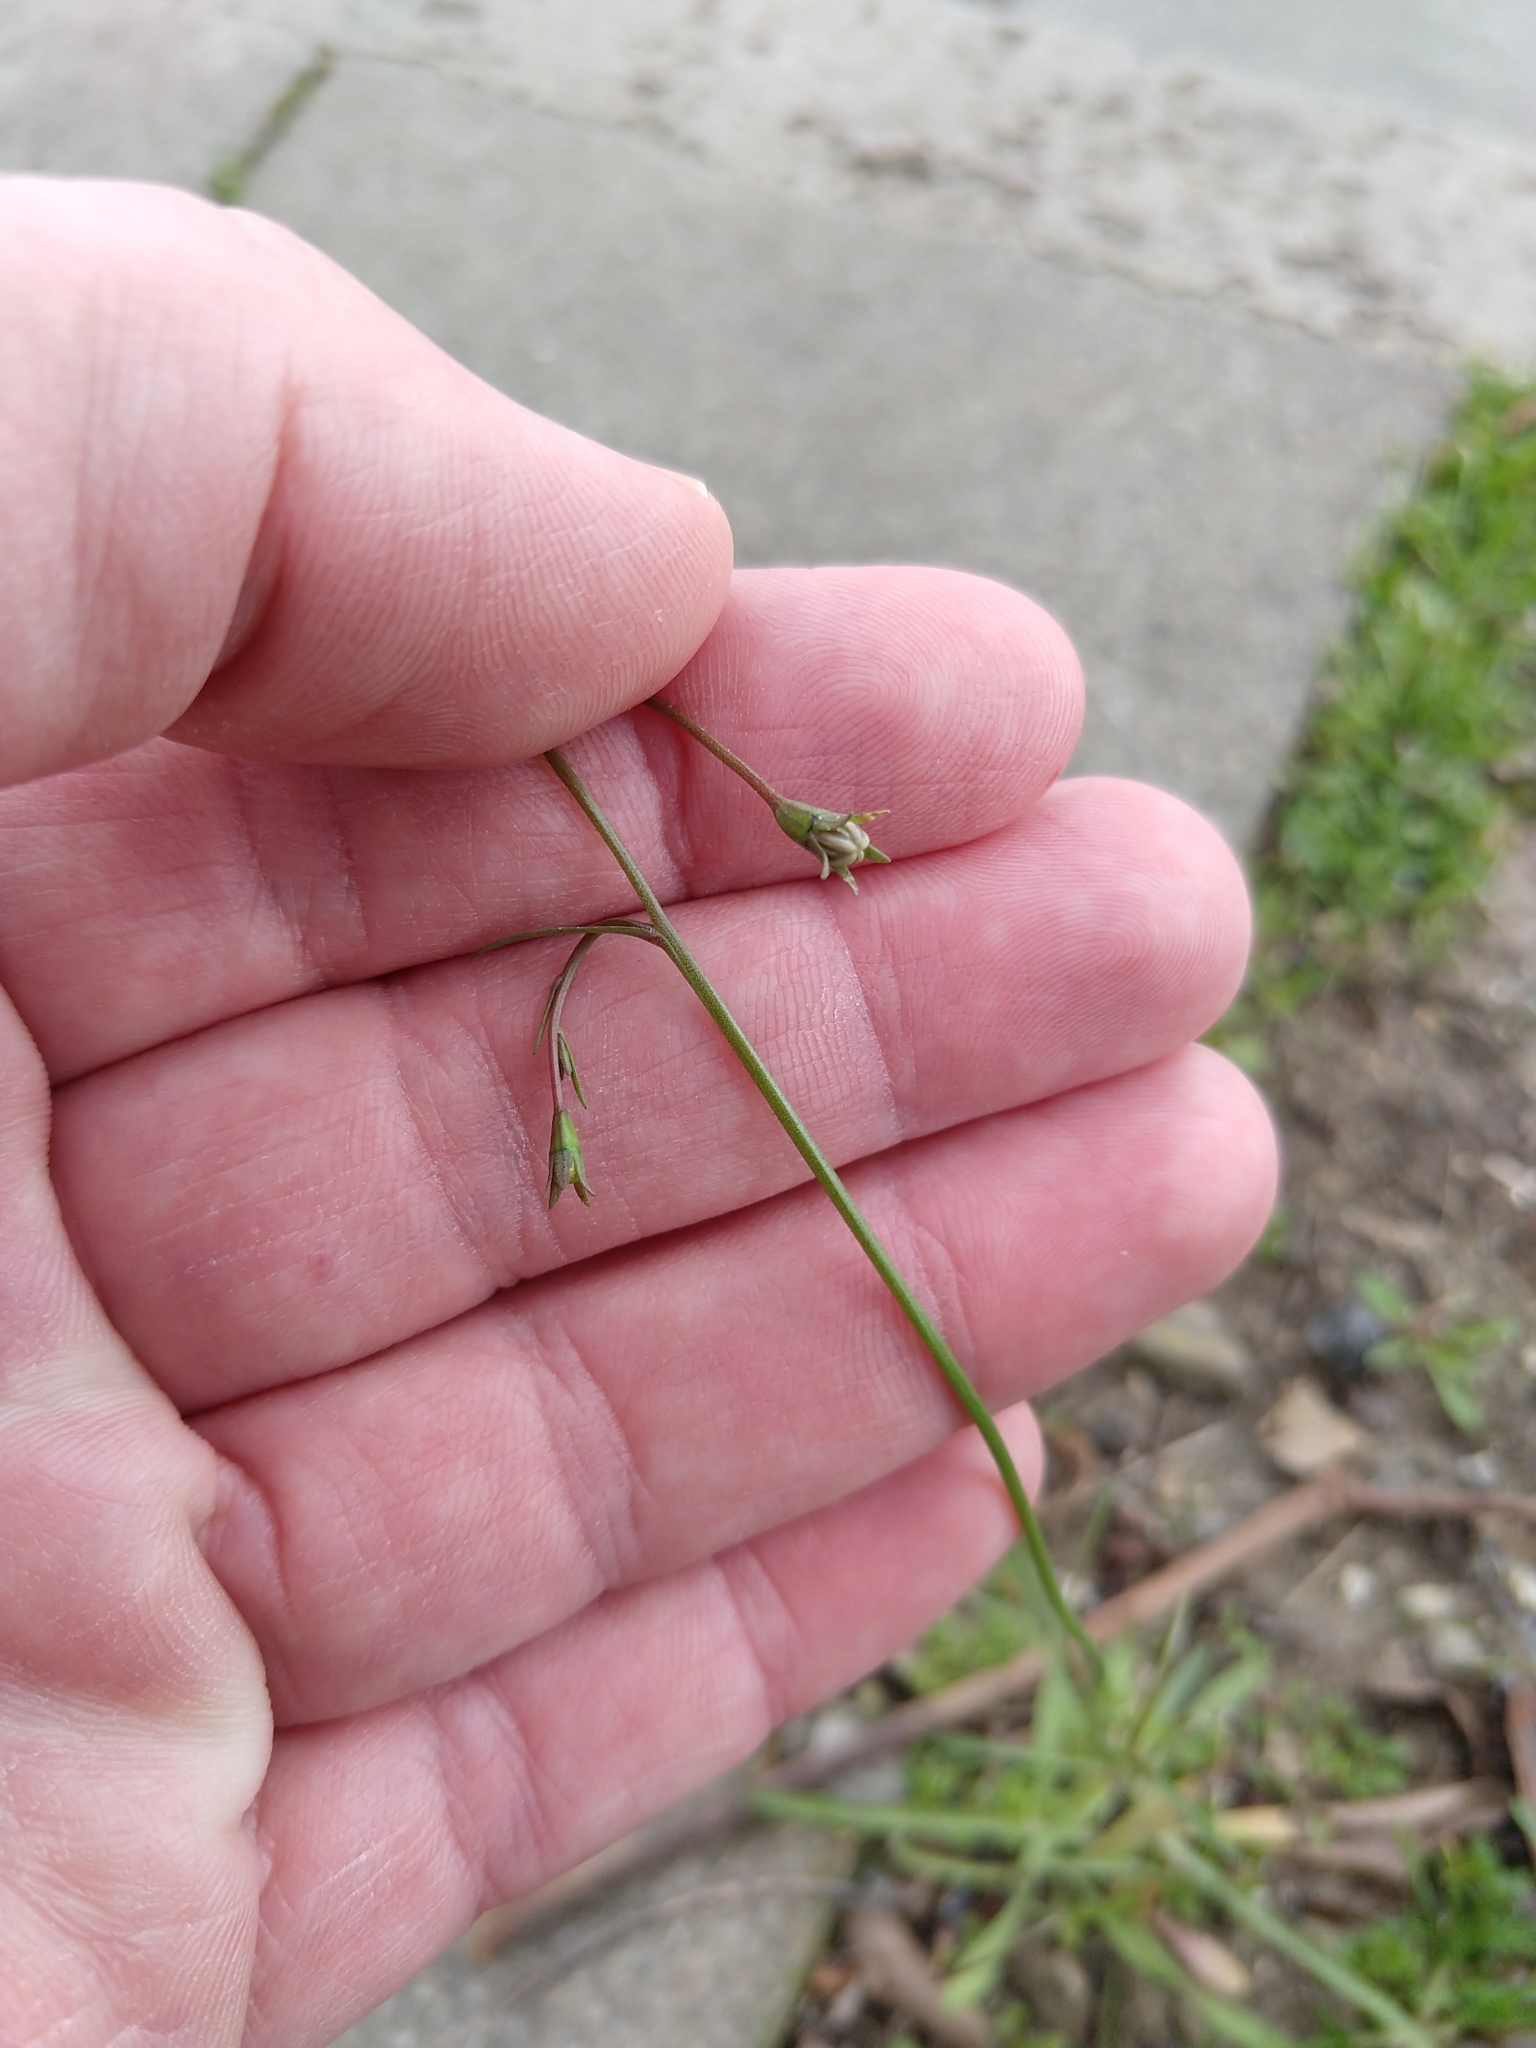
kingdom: Plantae
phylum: Tracheophyta
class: Magnoliopsida
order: Asterales
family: Campanulaceae
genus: Wahlenbergia
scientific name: Wahlenbergia marginata
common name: Southern rockbell
